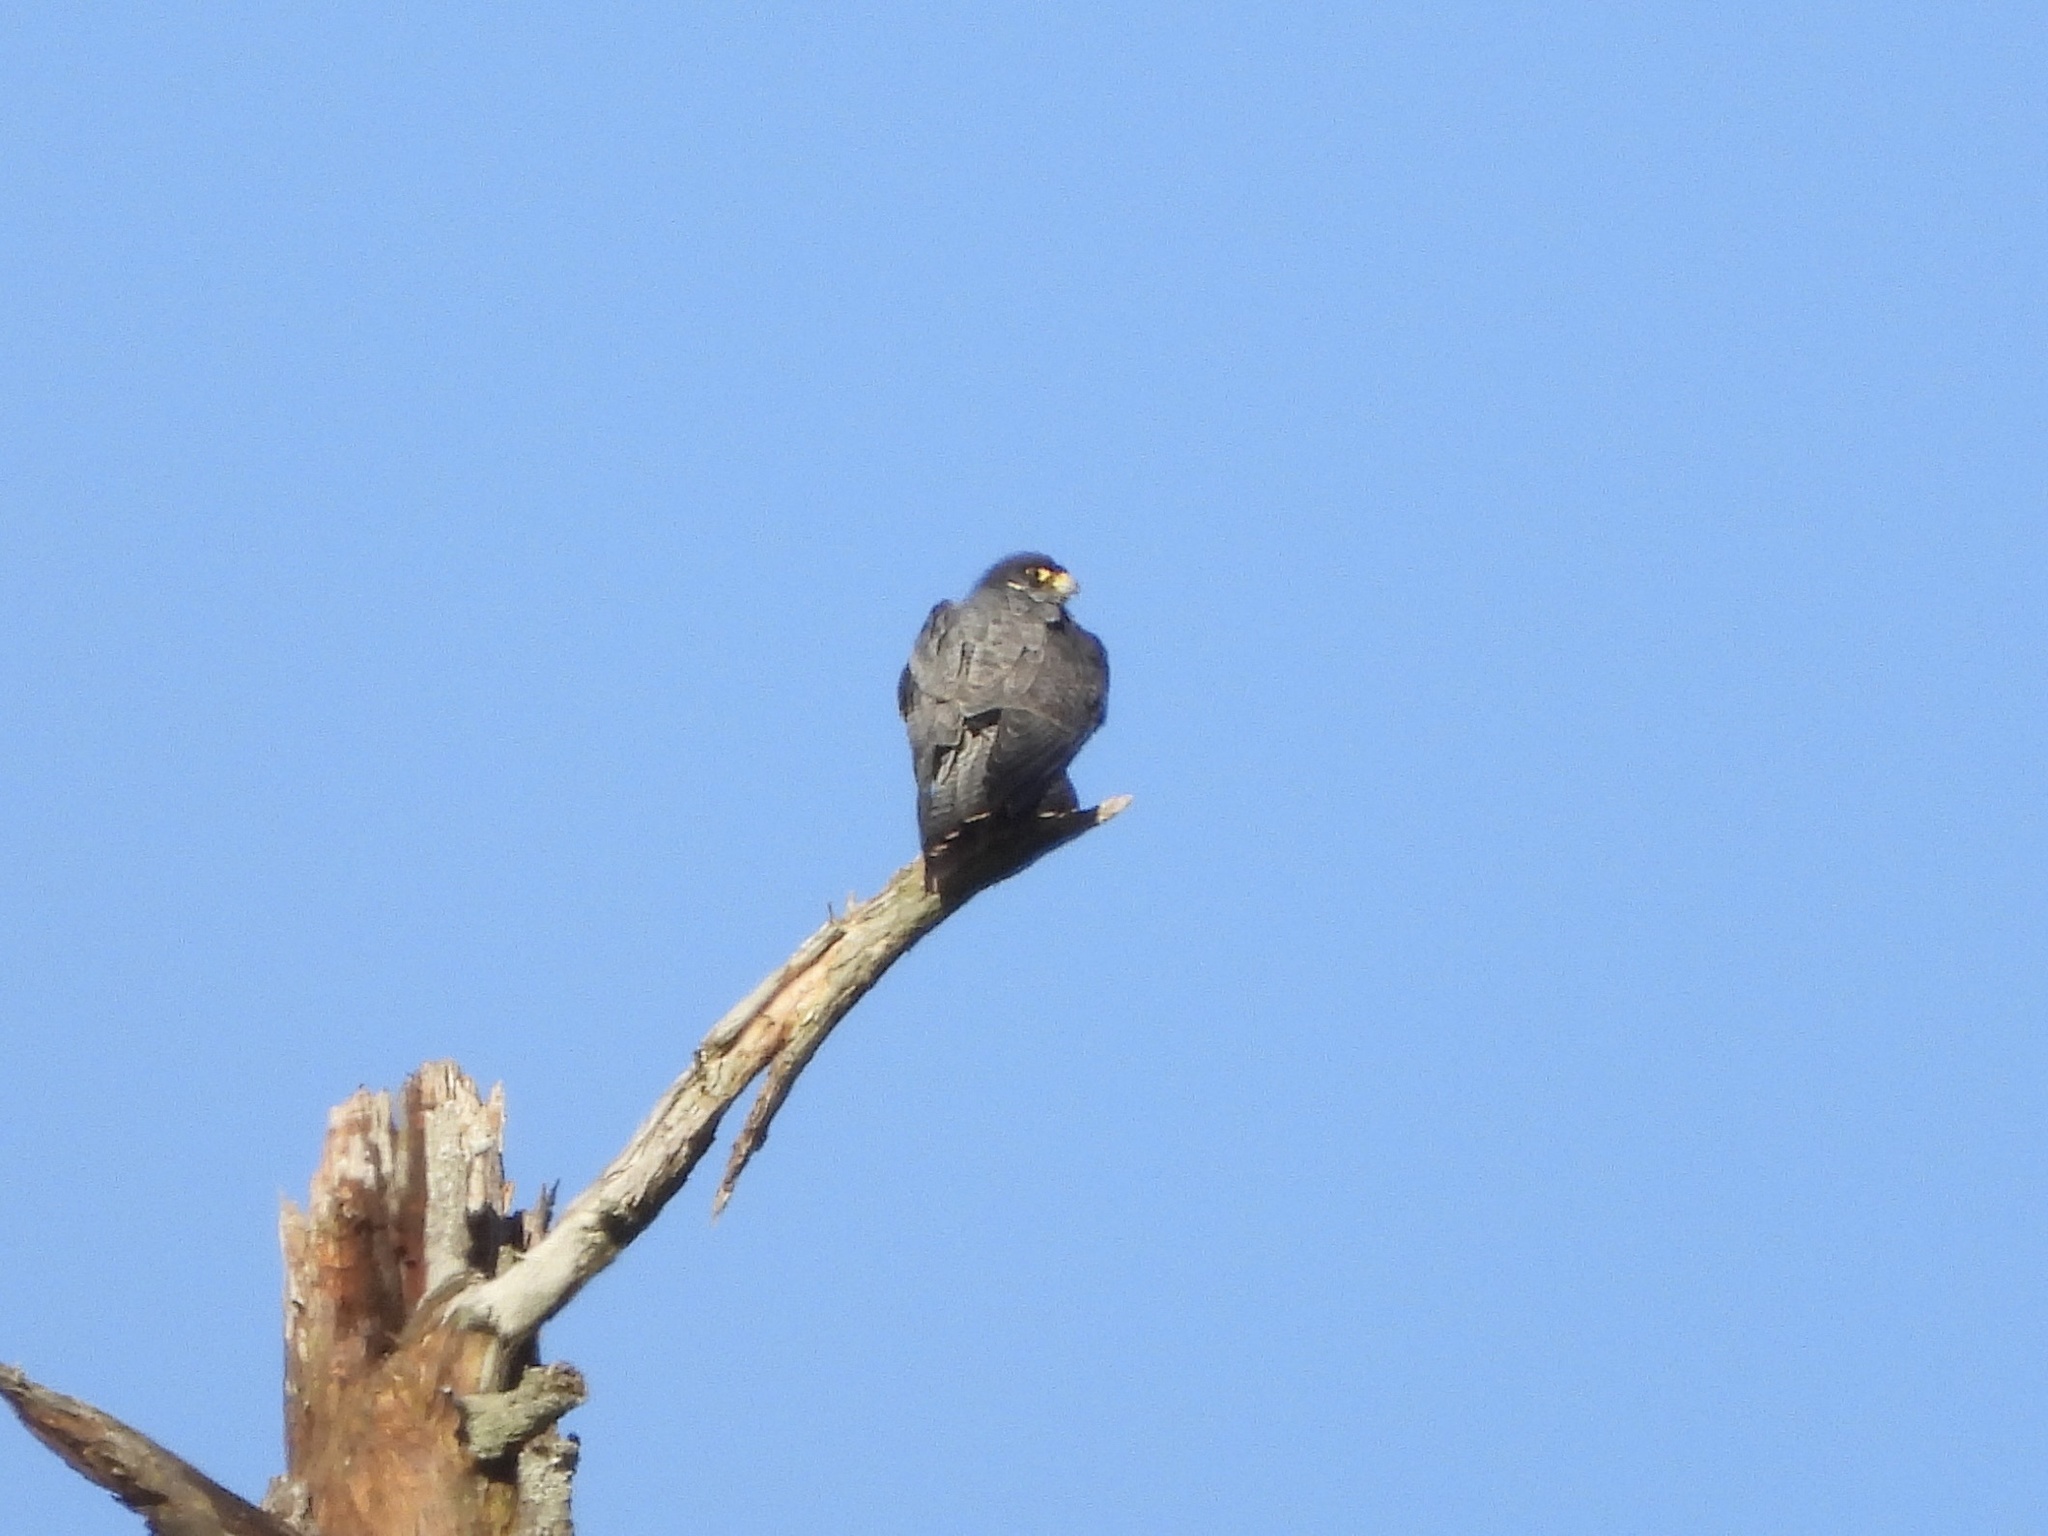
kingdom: Animalia
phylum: Chordata
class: Aves
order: Falconiformes
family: Falconidae
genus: Falco
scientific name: Falco peregrinus
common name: Peregrine falcon
